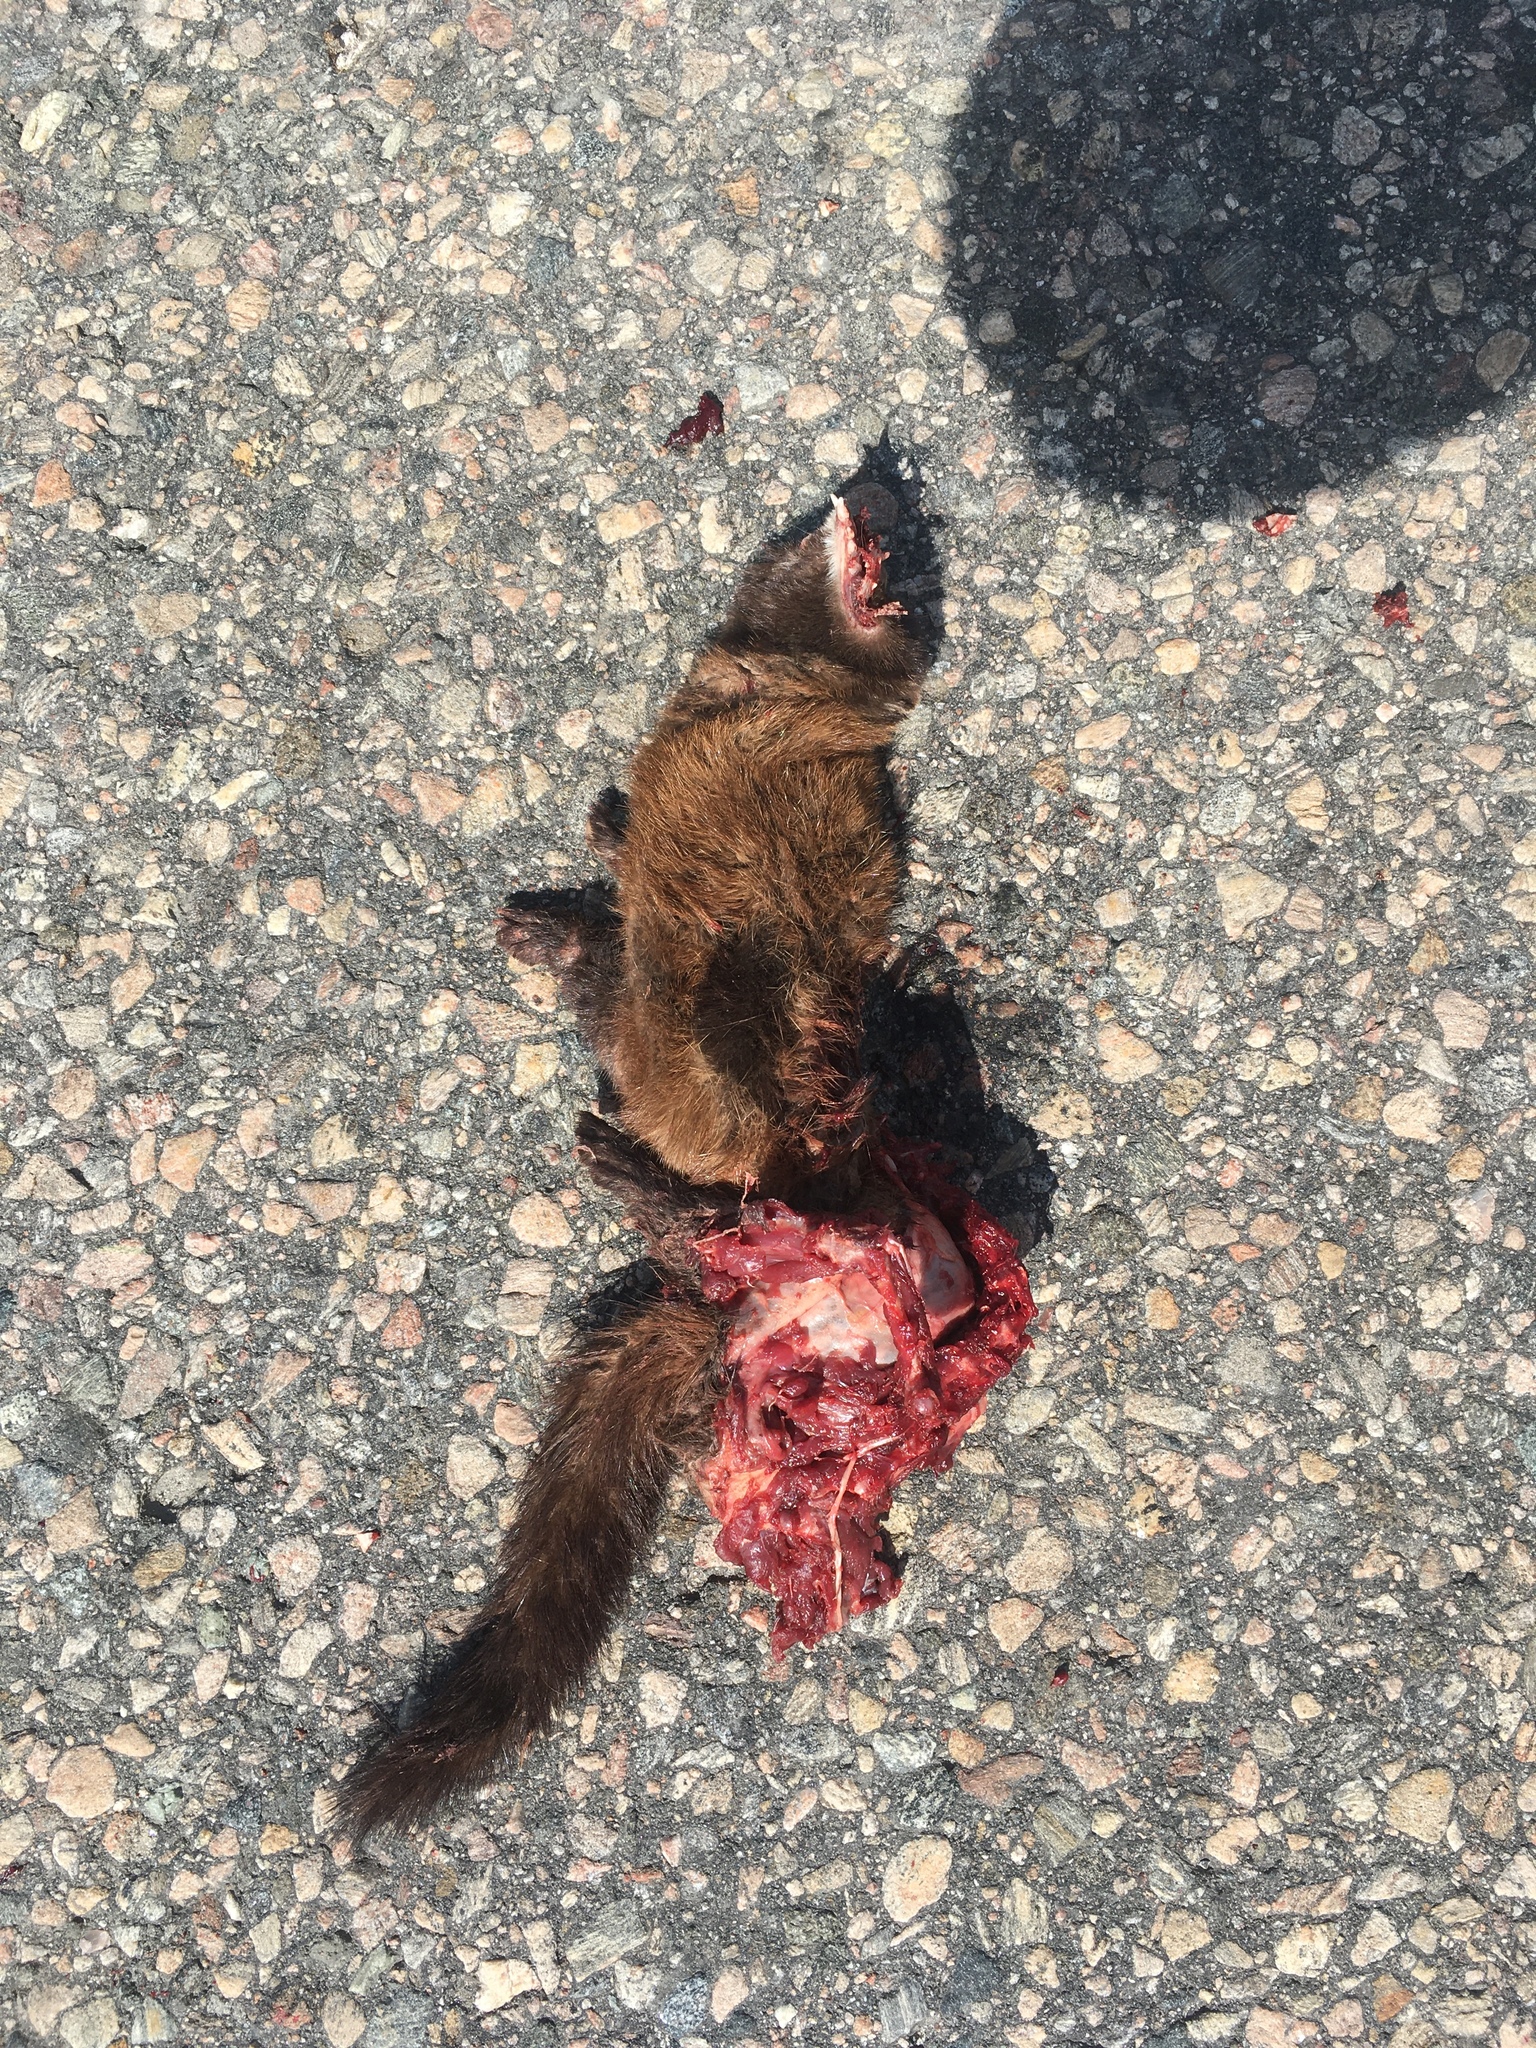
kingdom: Animalia
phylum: Chordata
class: Mammalia
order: Carnivora
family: Mustelidae
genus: Mustela
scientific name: Mustela
